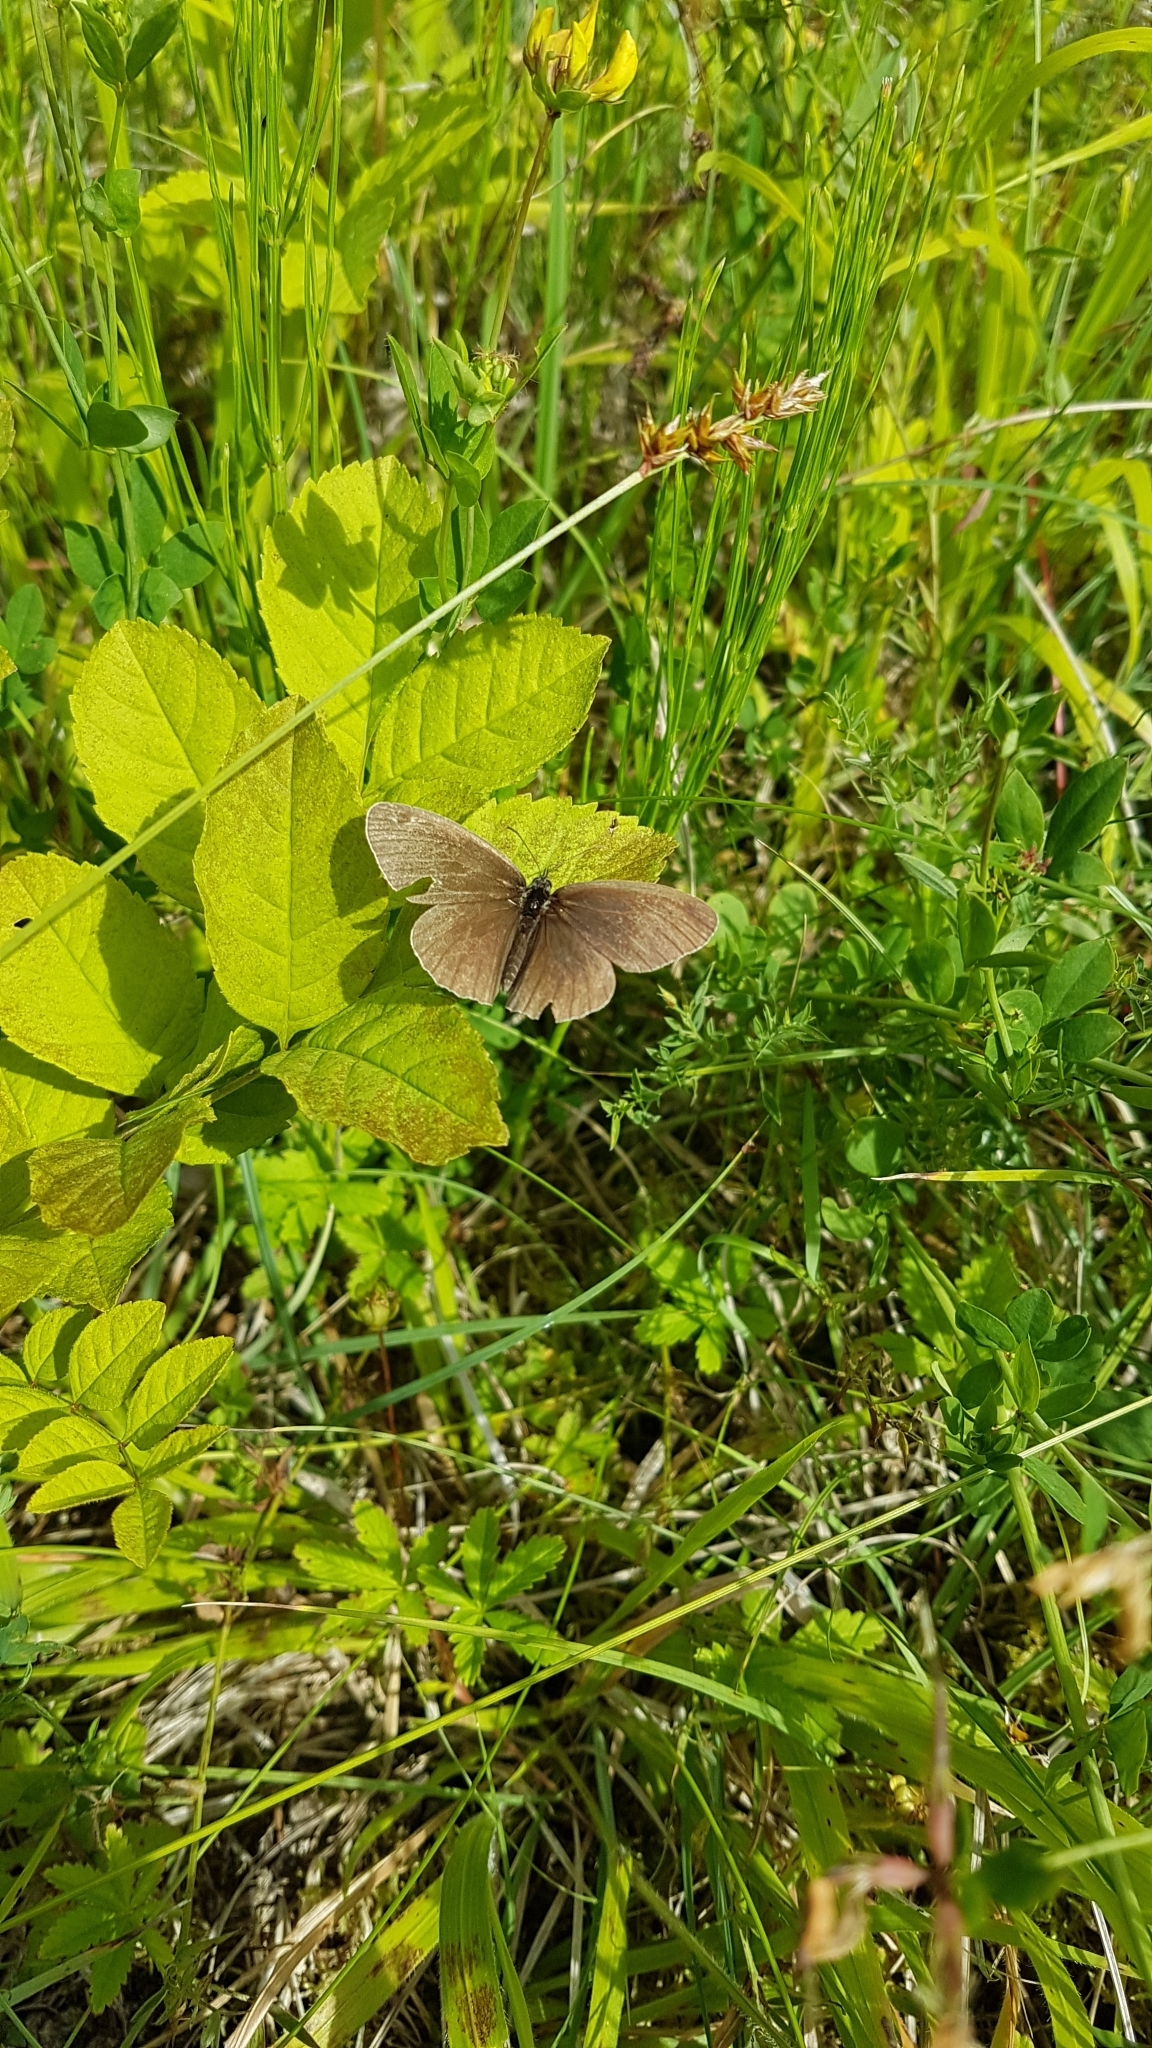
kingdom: Animalia
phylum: Arthropoda
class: Insecta
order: Lepidoptera
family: Nymphalidae
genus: Aphantopus
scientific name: Aphantopus hyperantus
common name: Ringlet
